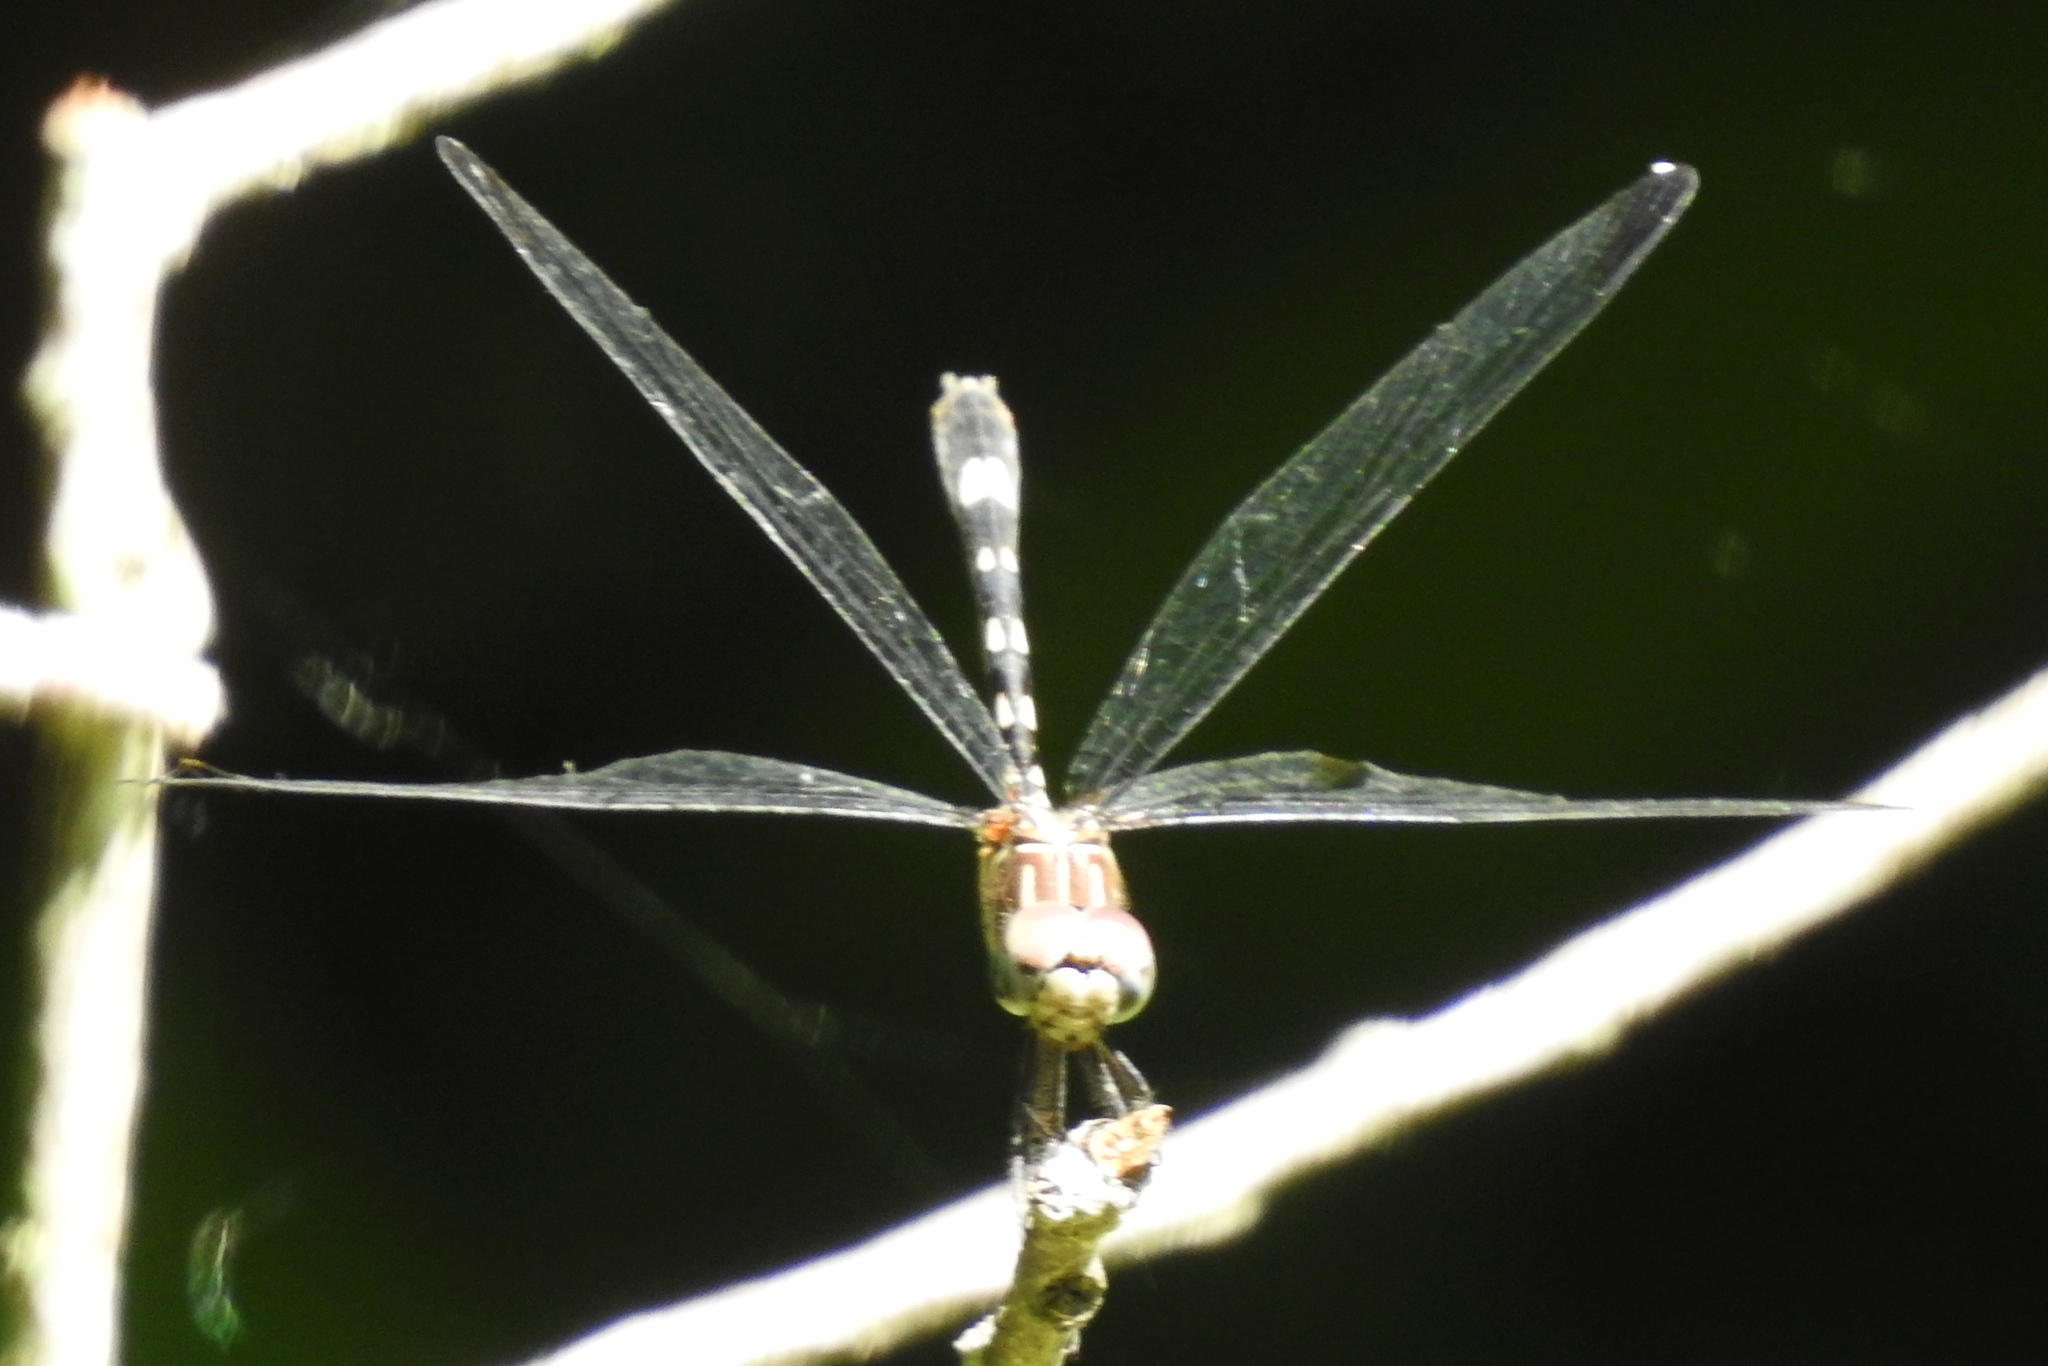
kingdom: Animalia
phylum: Arthropoda
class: Insecta
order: Odonata
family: Libellulidae
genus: Pachydiplax
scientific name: Pachydiplax longipennis
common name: Blue dasher
